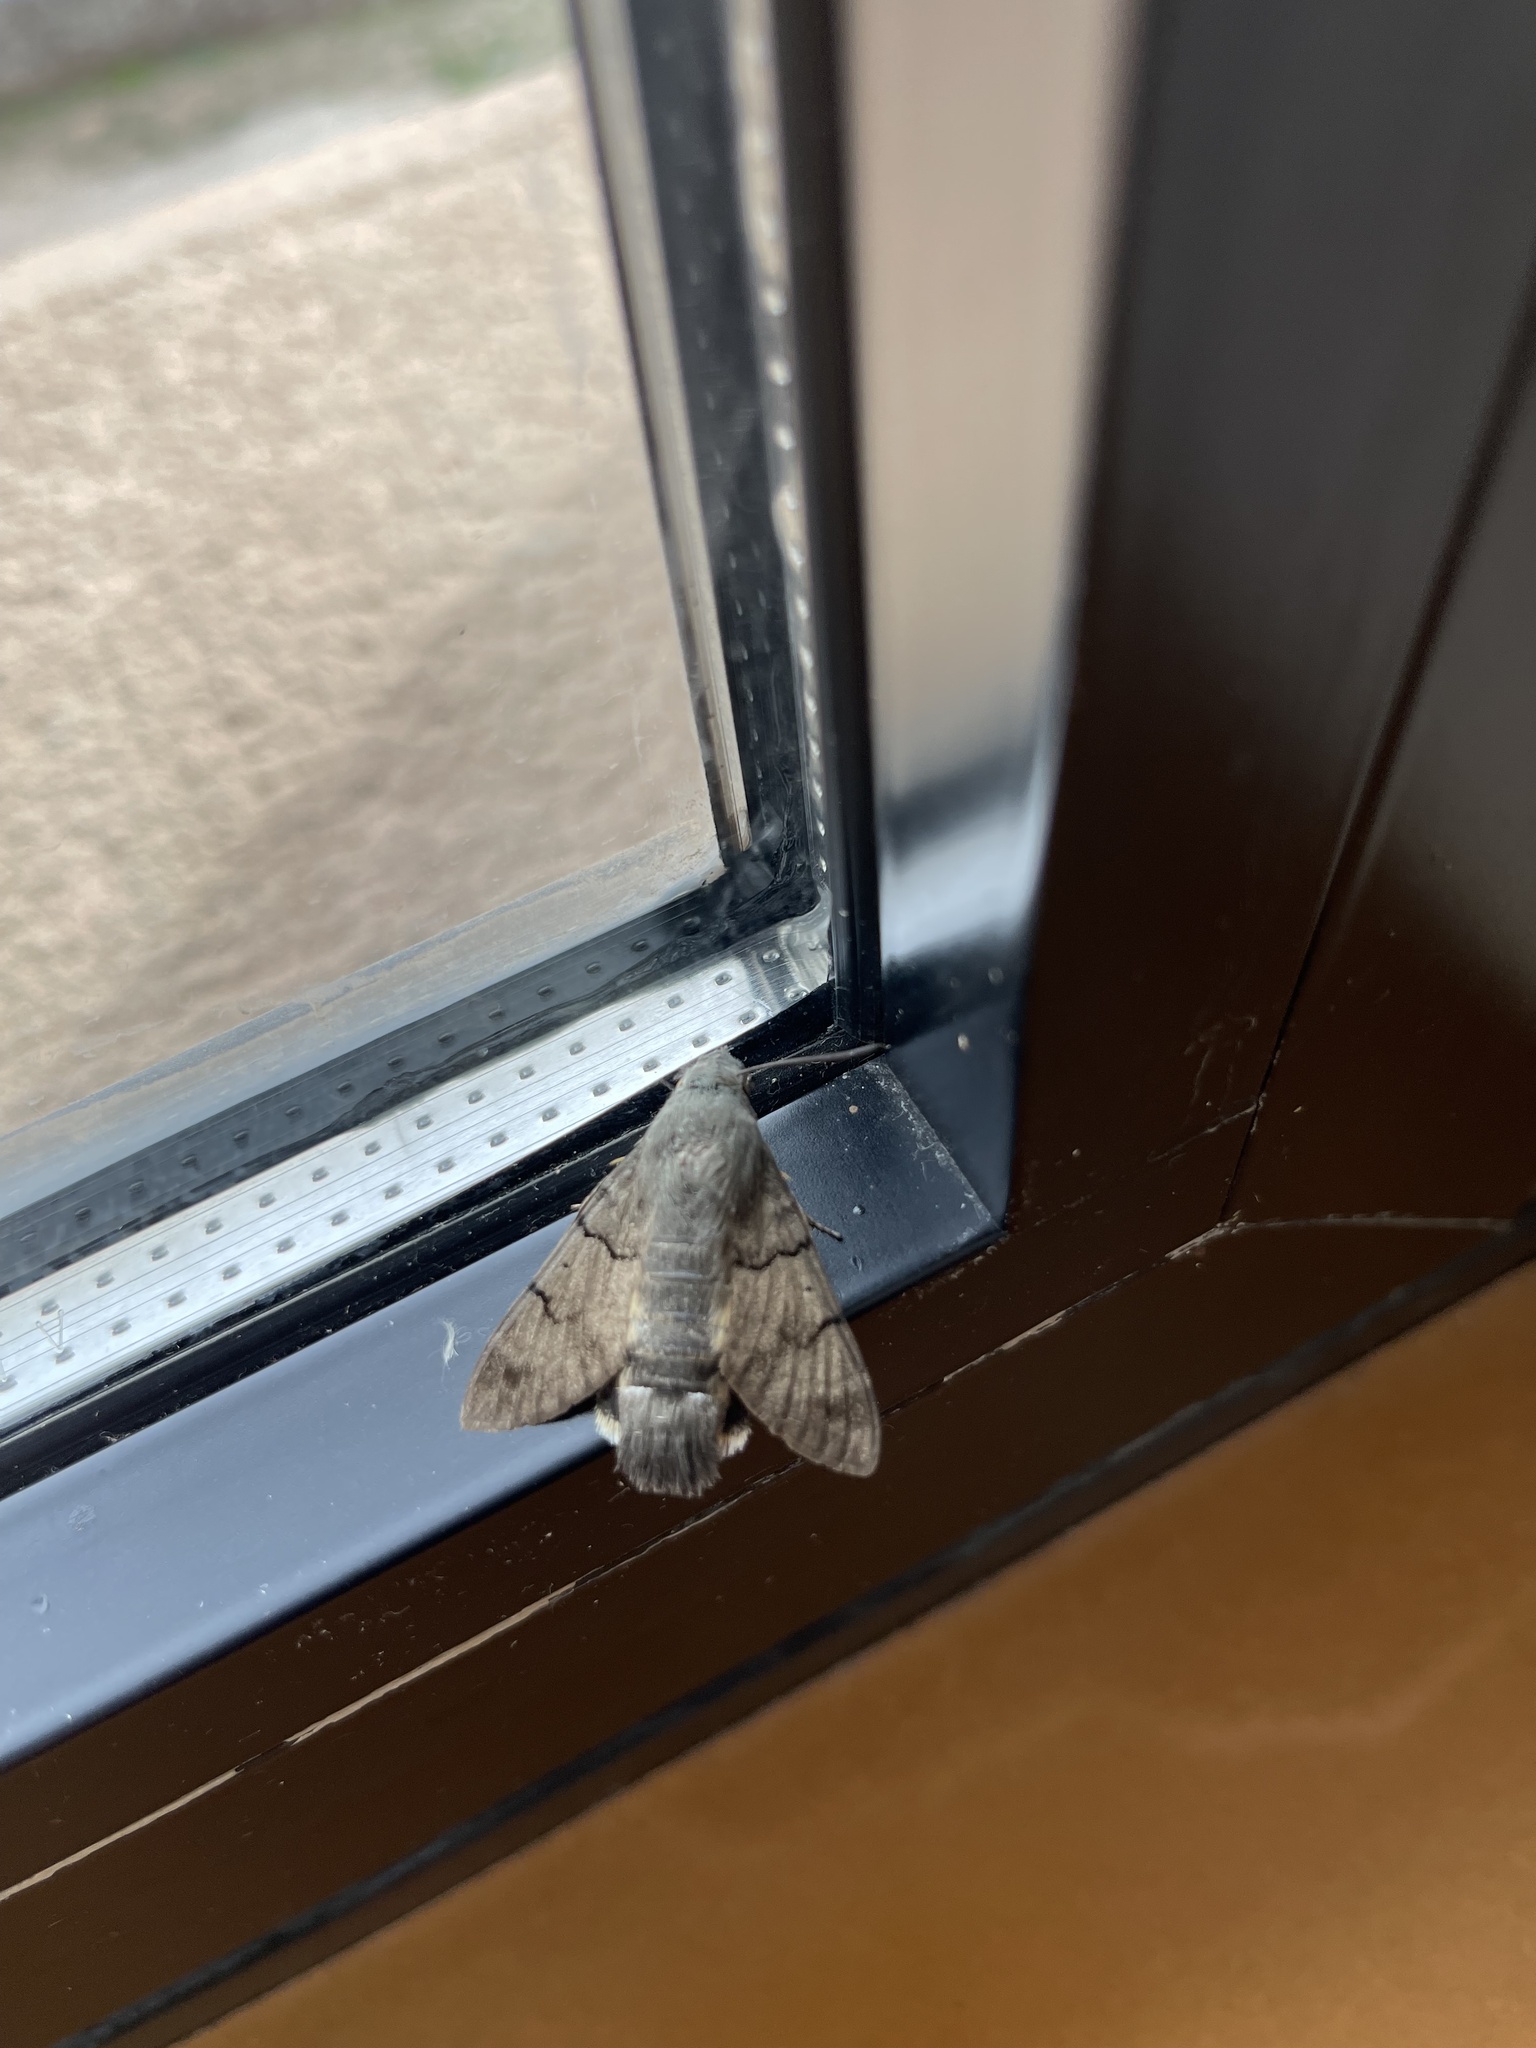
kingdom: Animalia
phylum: Arthropoda
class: Insecta
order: Lepidoptera
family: Sphingidae
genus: Macroglossum
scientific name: Macroglossum stellatarum
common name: Humming-bird hawk-moth
